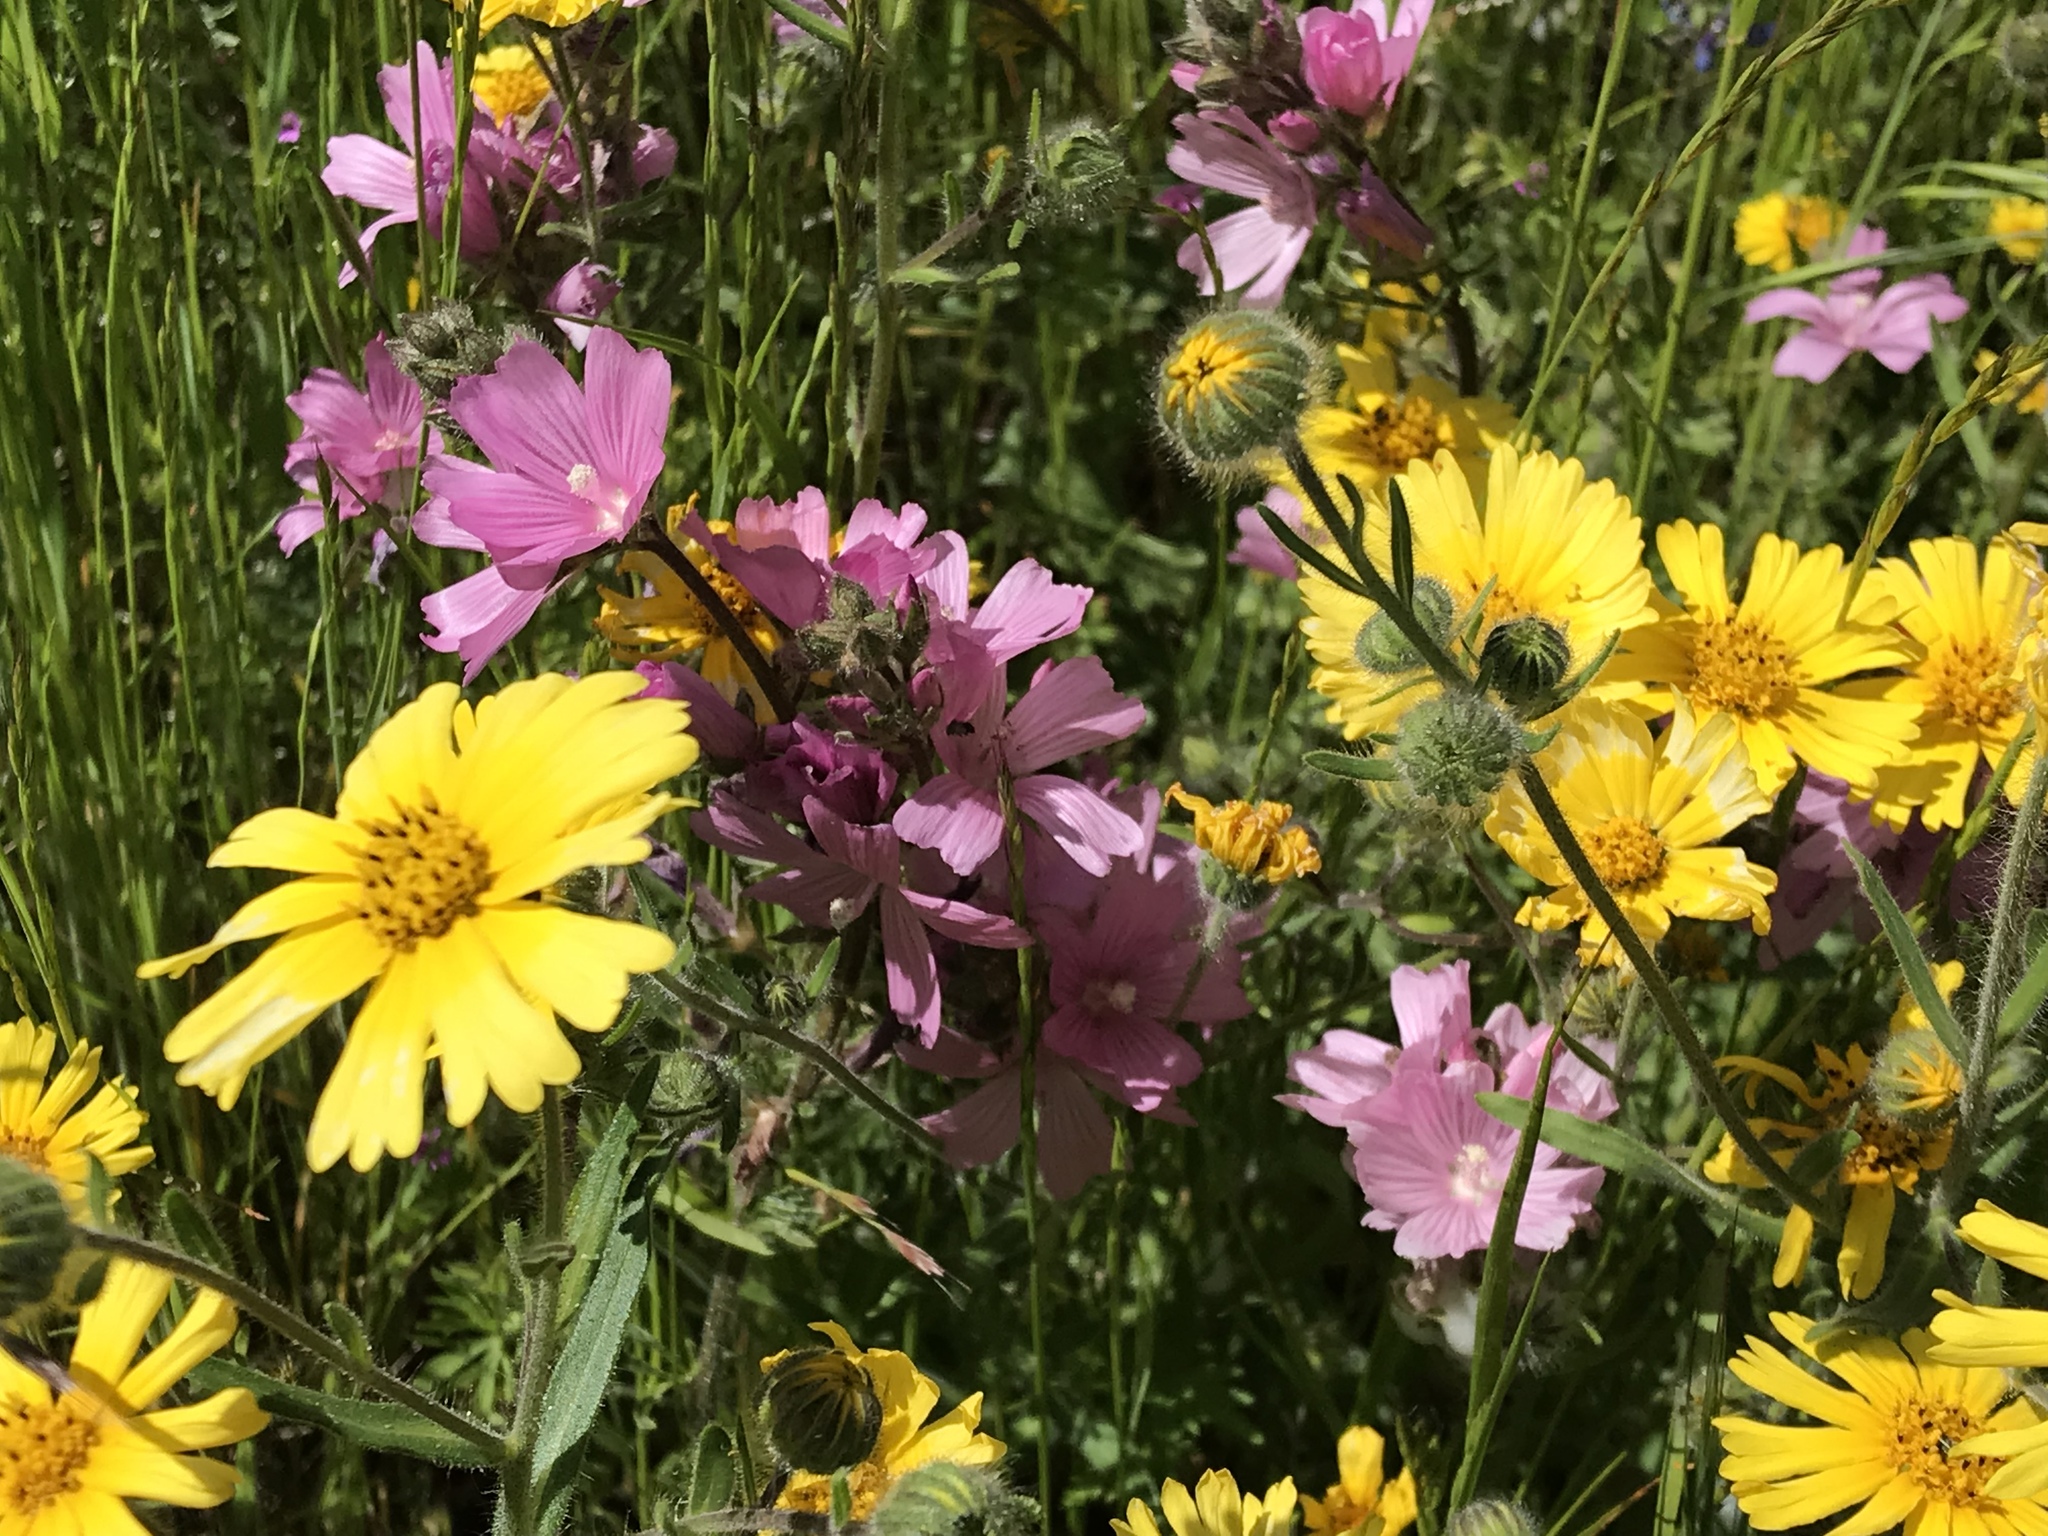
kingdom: Plantae
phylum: Tracheophyta
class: Magnoliopsida
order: Malvales
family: Malvaceae
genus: Sidalcea
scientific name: Sidalcea malviflora
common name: Greek mallow
